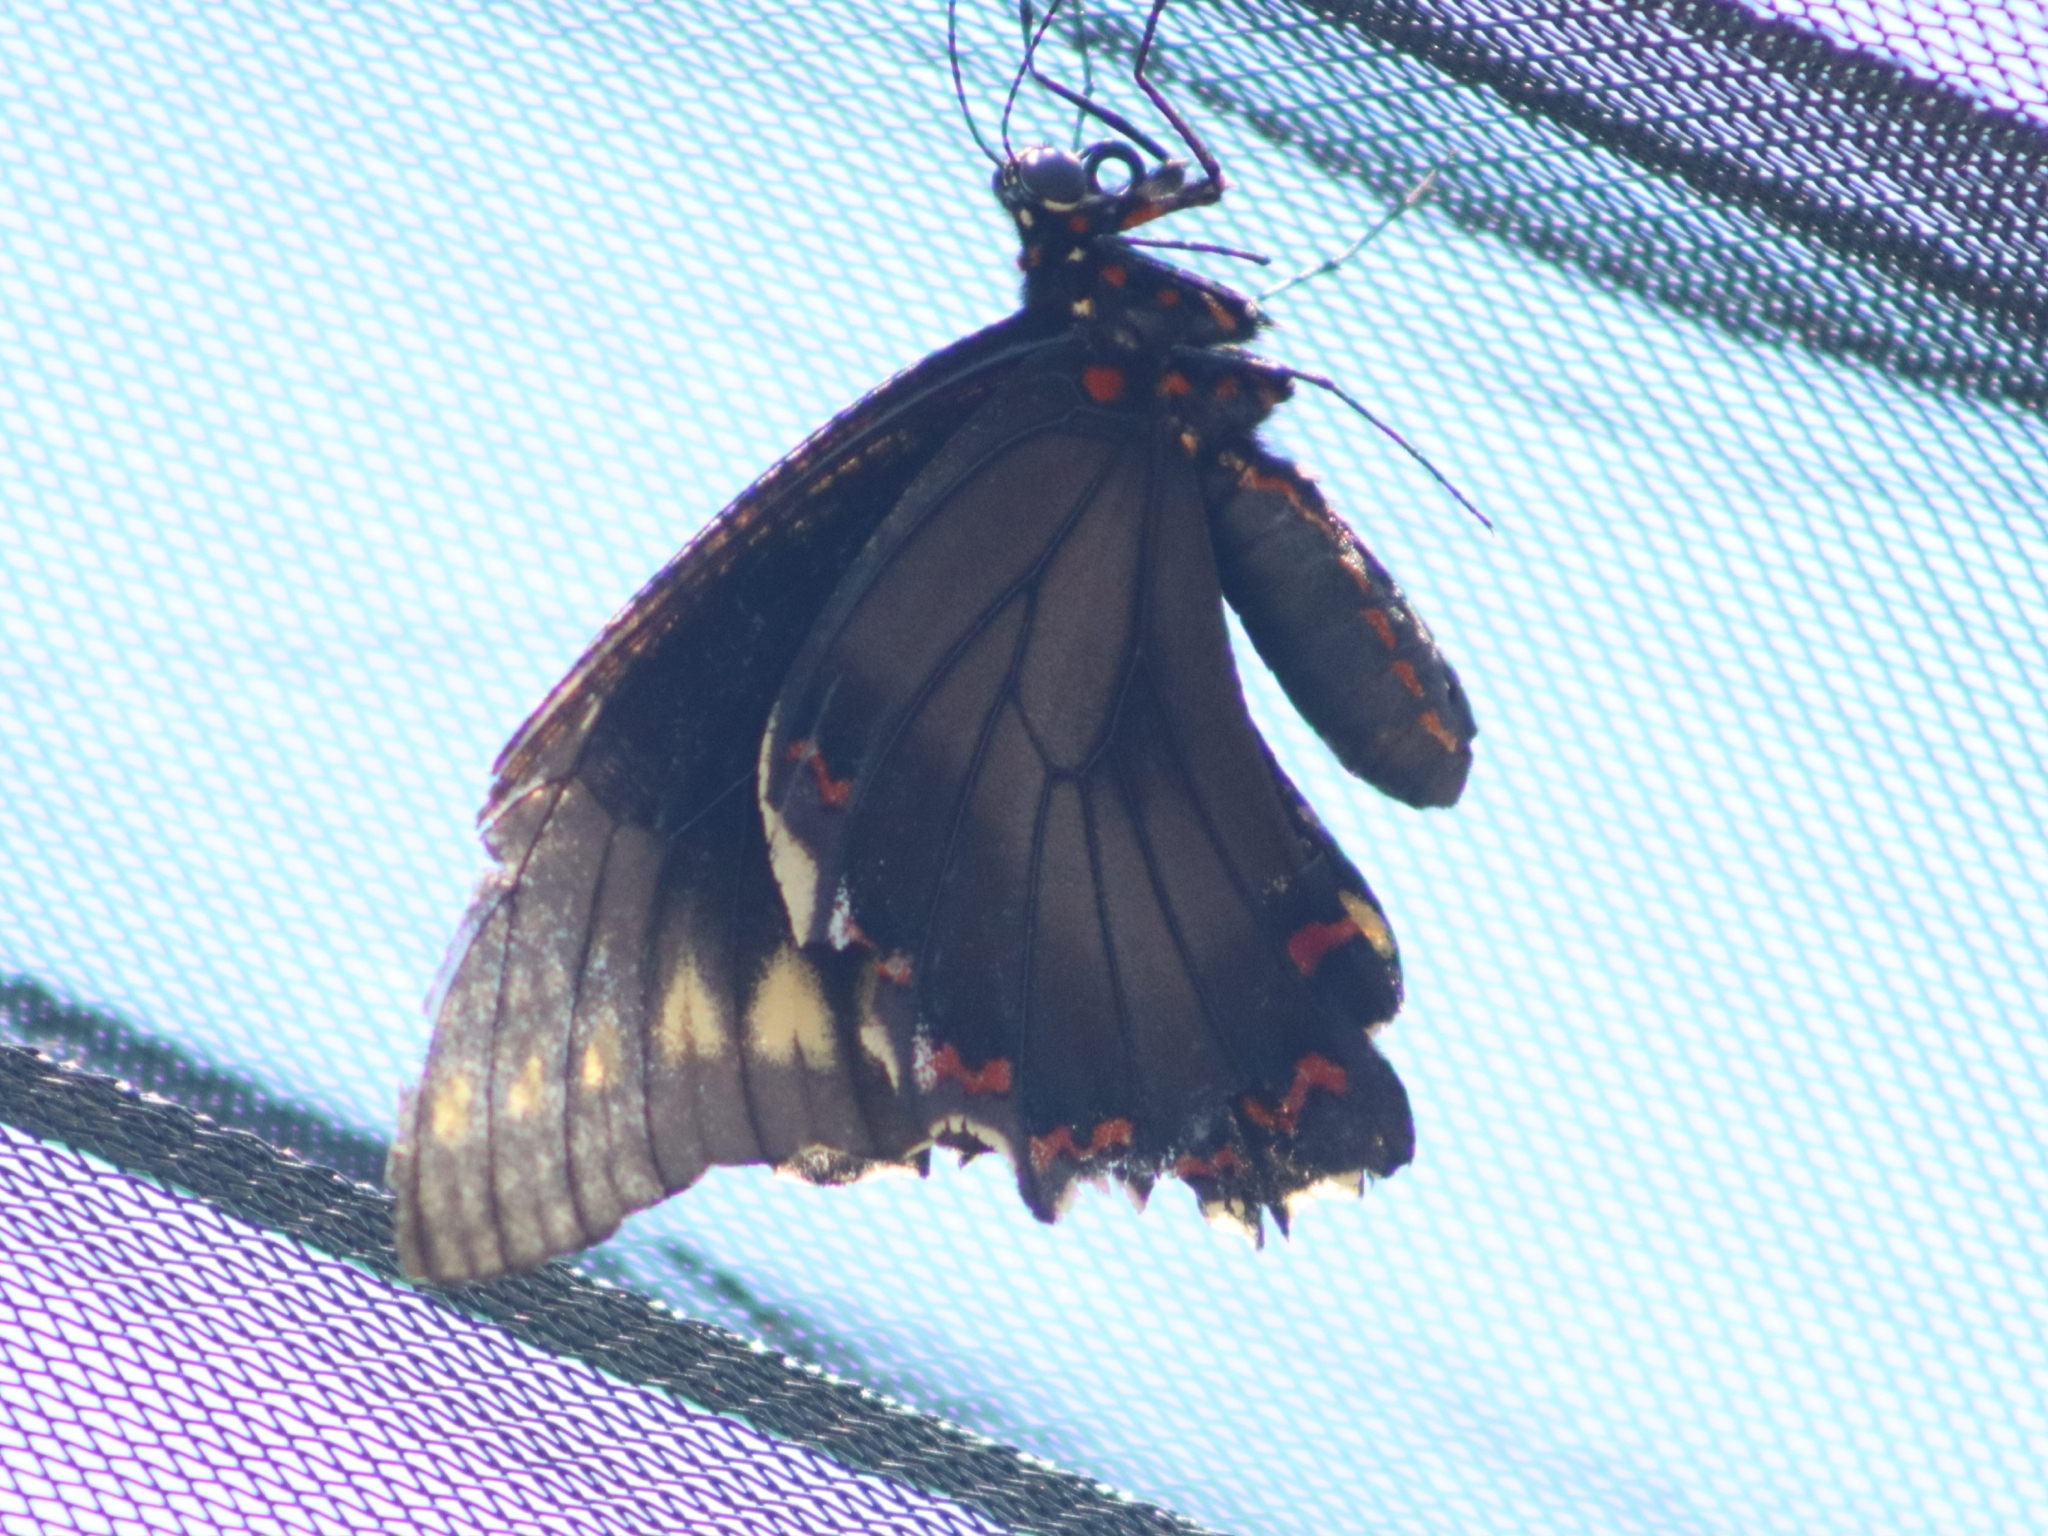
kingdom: Animalia
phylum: Arthropoda
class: Insecta
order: Lepidoptera
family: Papilionidae
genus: Battus
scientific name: Battus polydamas
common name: Polydamas swallowtail
